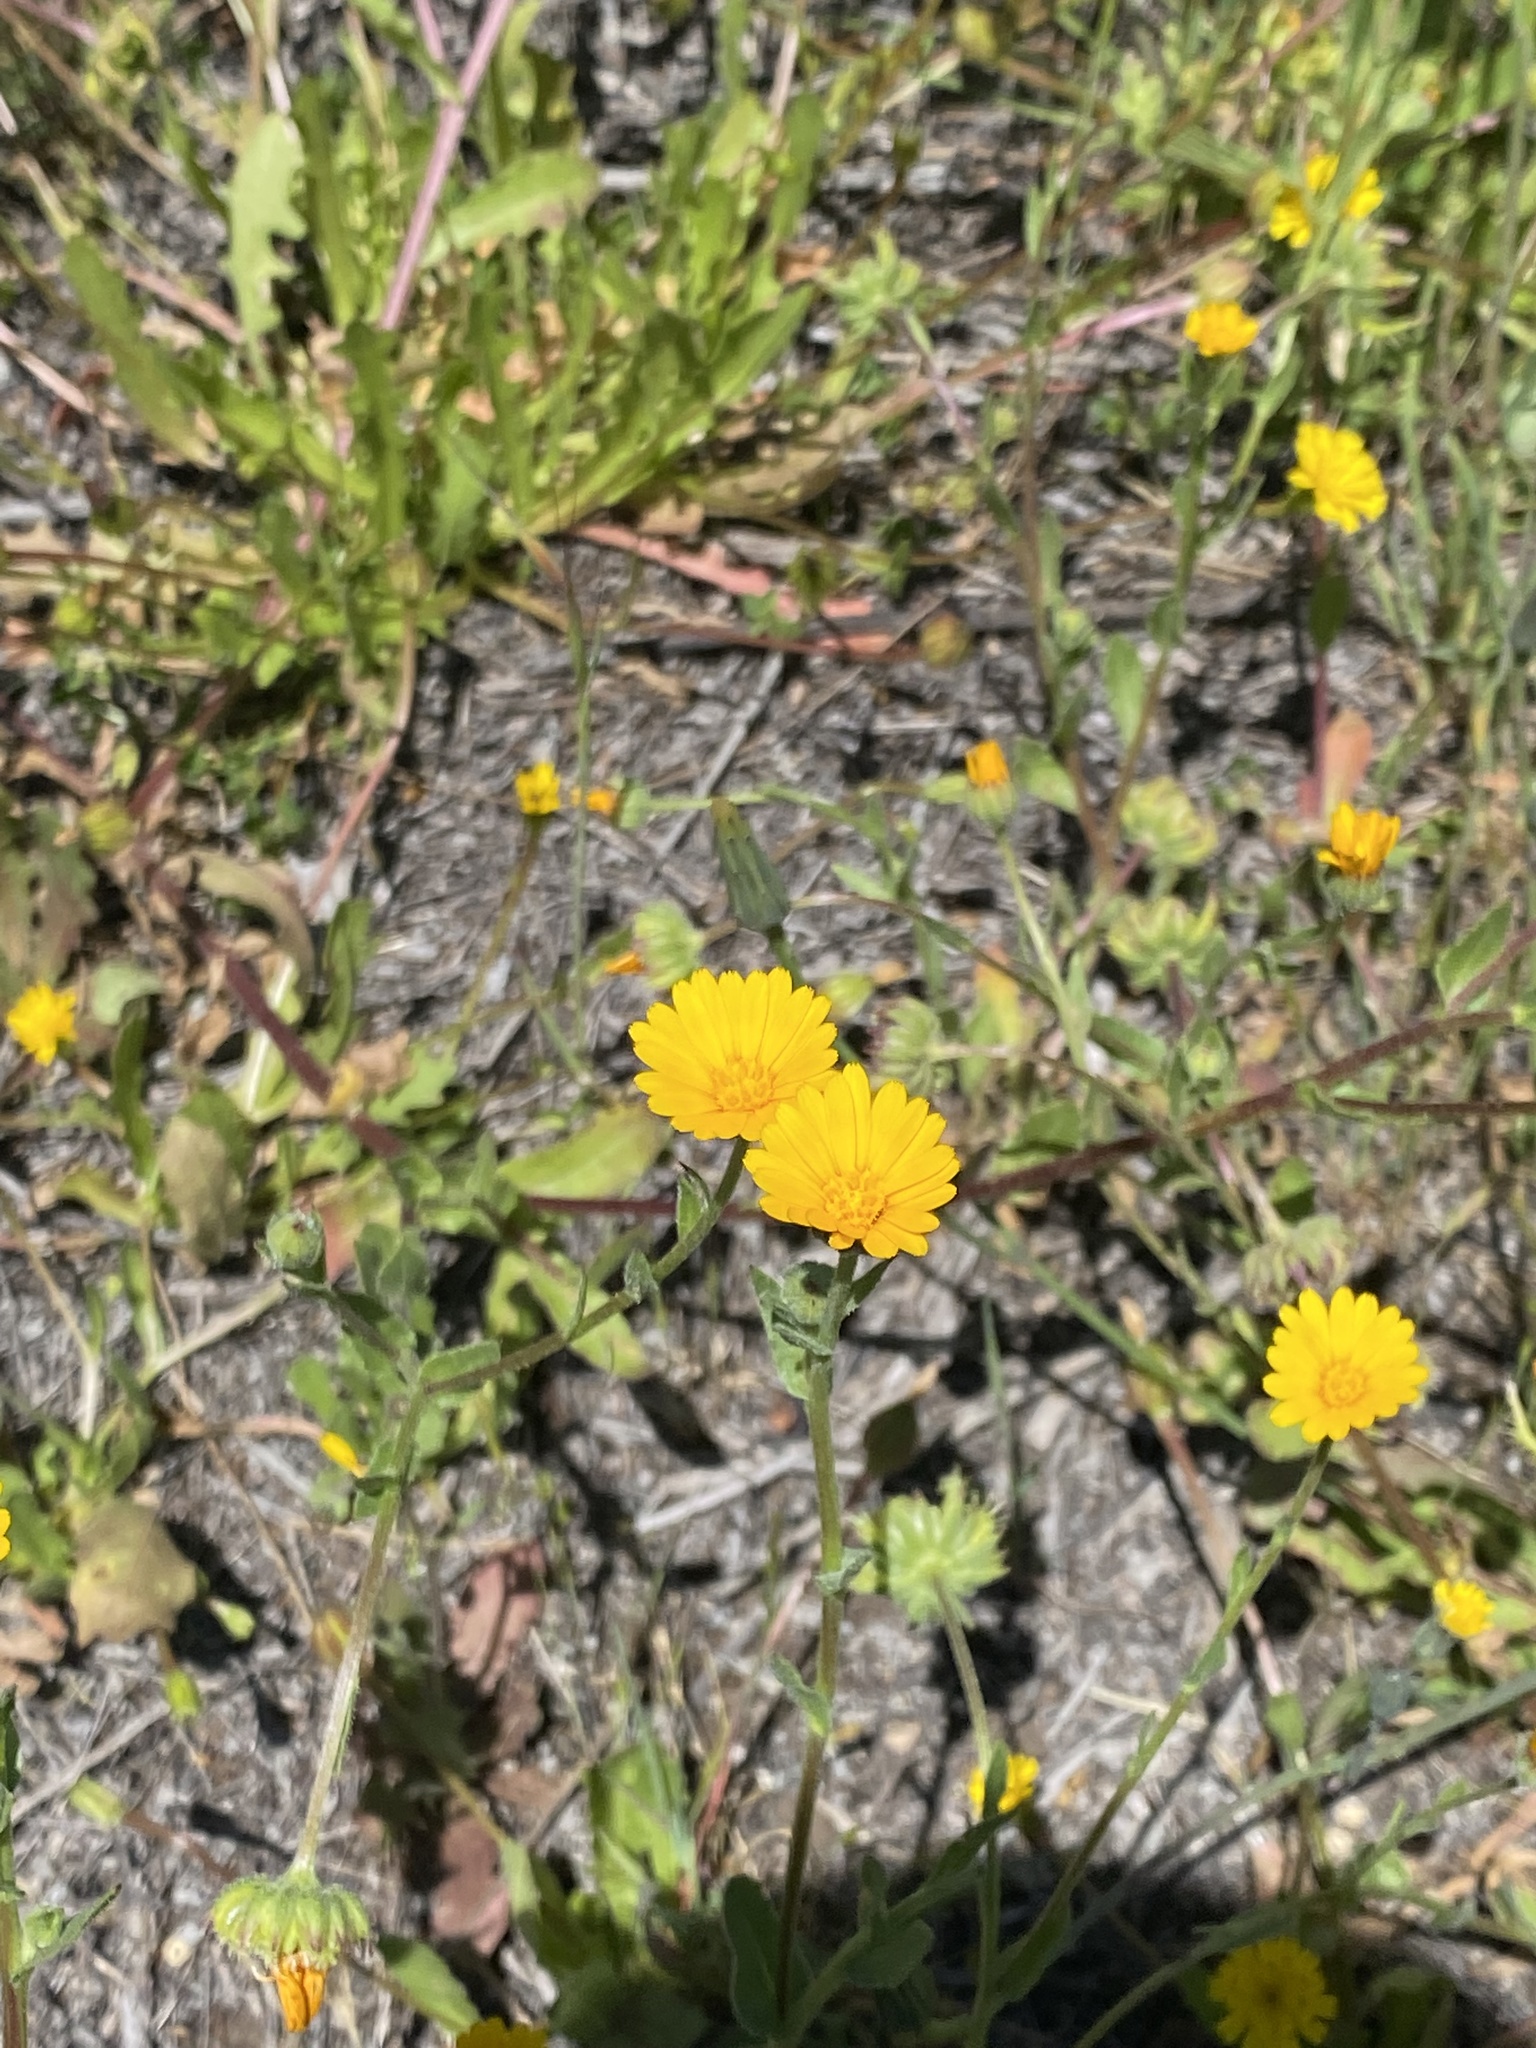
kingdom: Plantae
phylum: Tracheophyta
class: Magnoliopsida
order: Asterales
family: Asteraceae
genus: Calendula
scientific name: Calendula arvensis
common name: Field marigold
